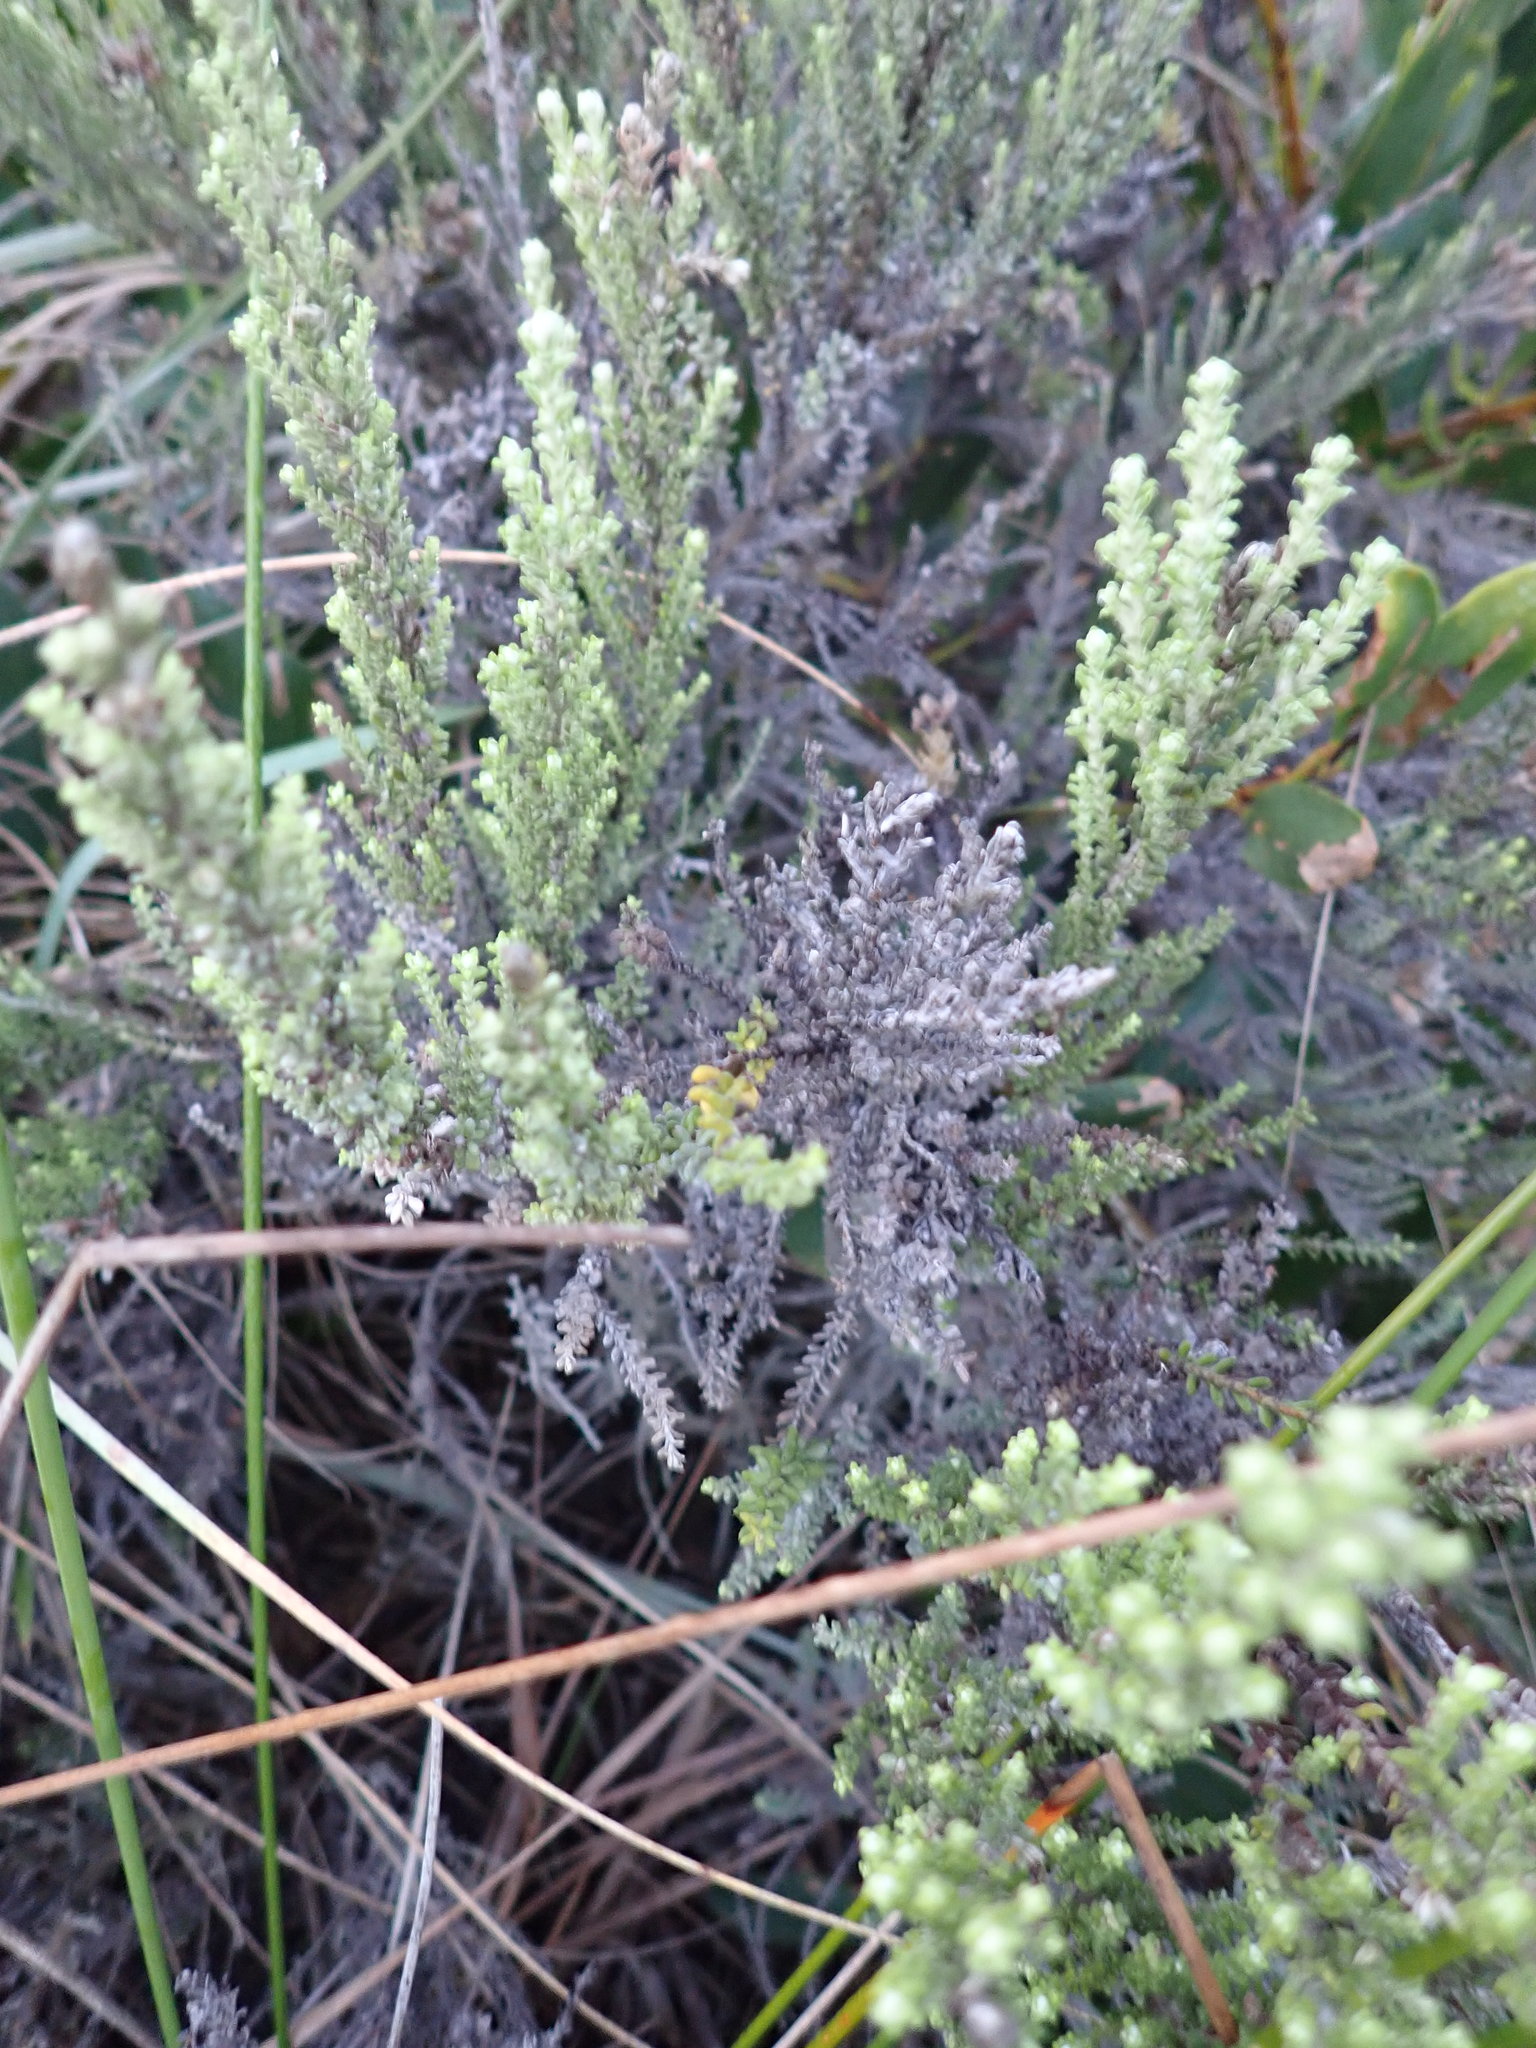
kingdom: Plantae
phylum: Tracheophyta
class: Magnoliopsida
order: Asterales
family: Asteraceae
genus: Ozothamnus
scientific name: Ozothamnus leptophyllus
